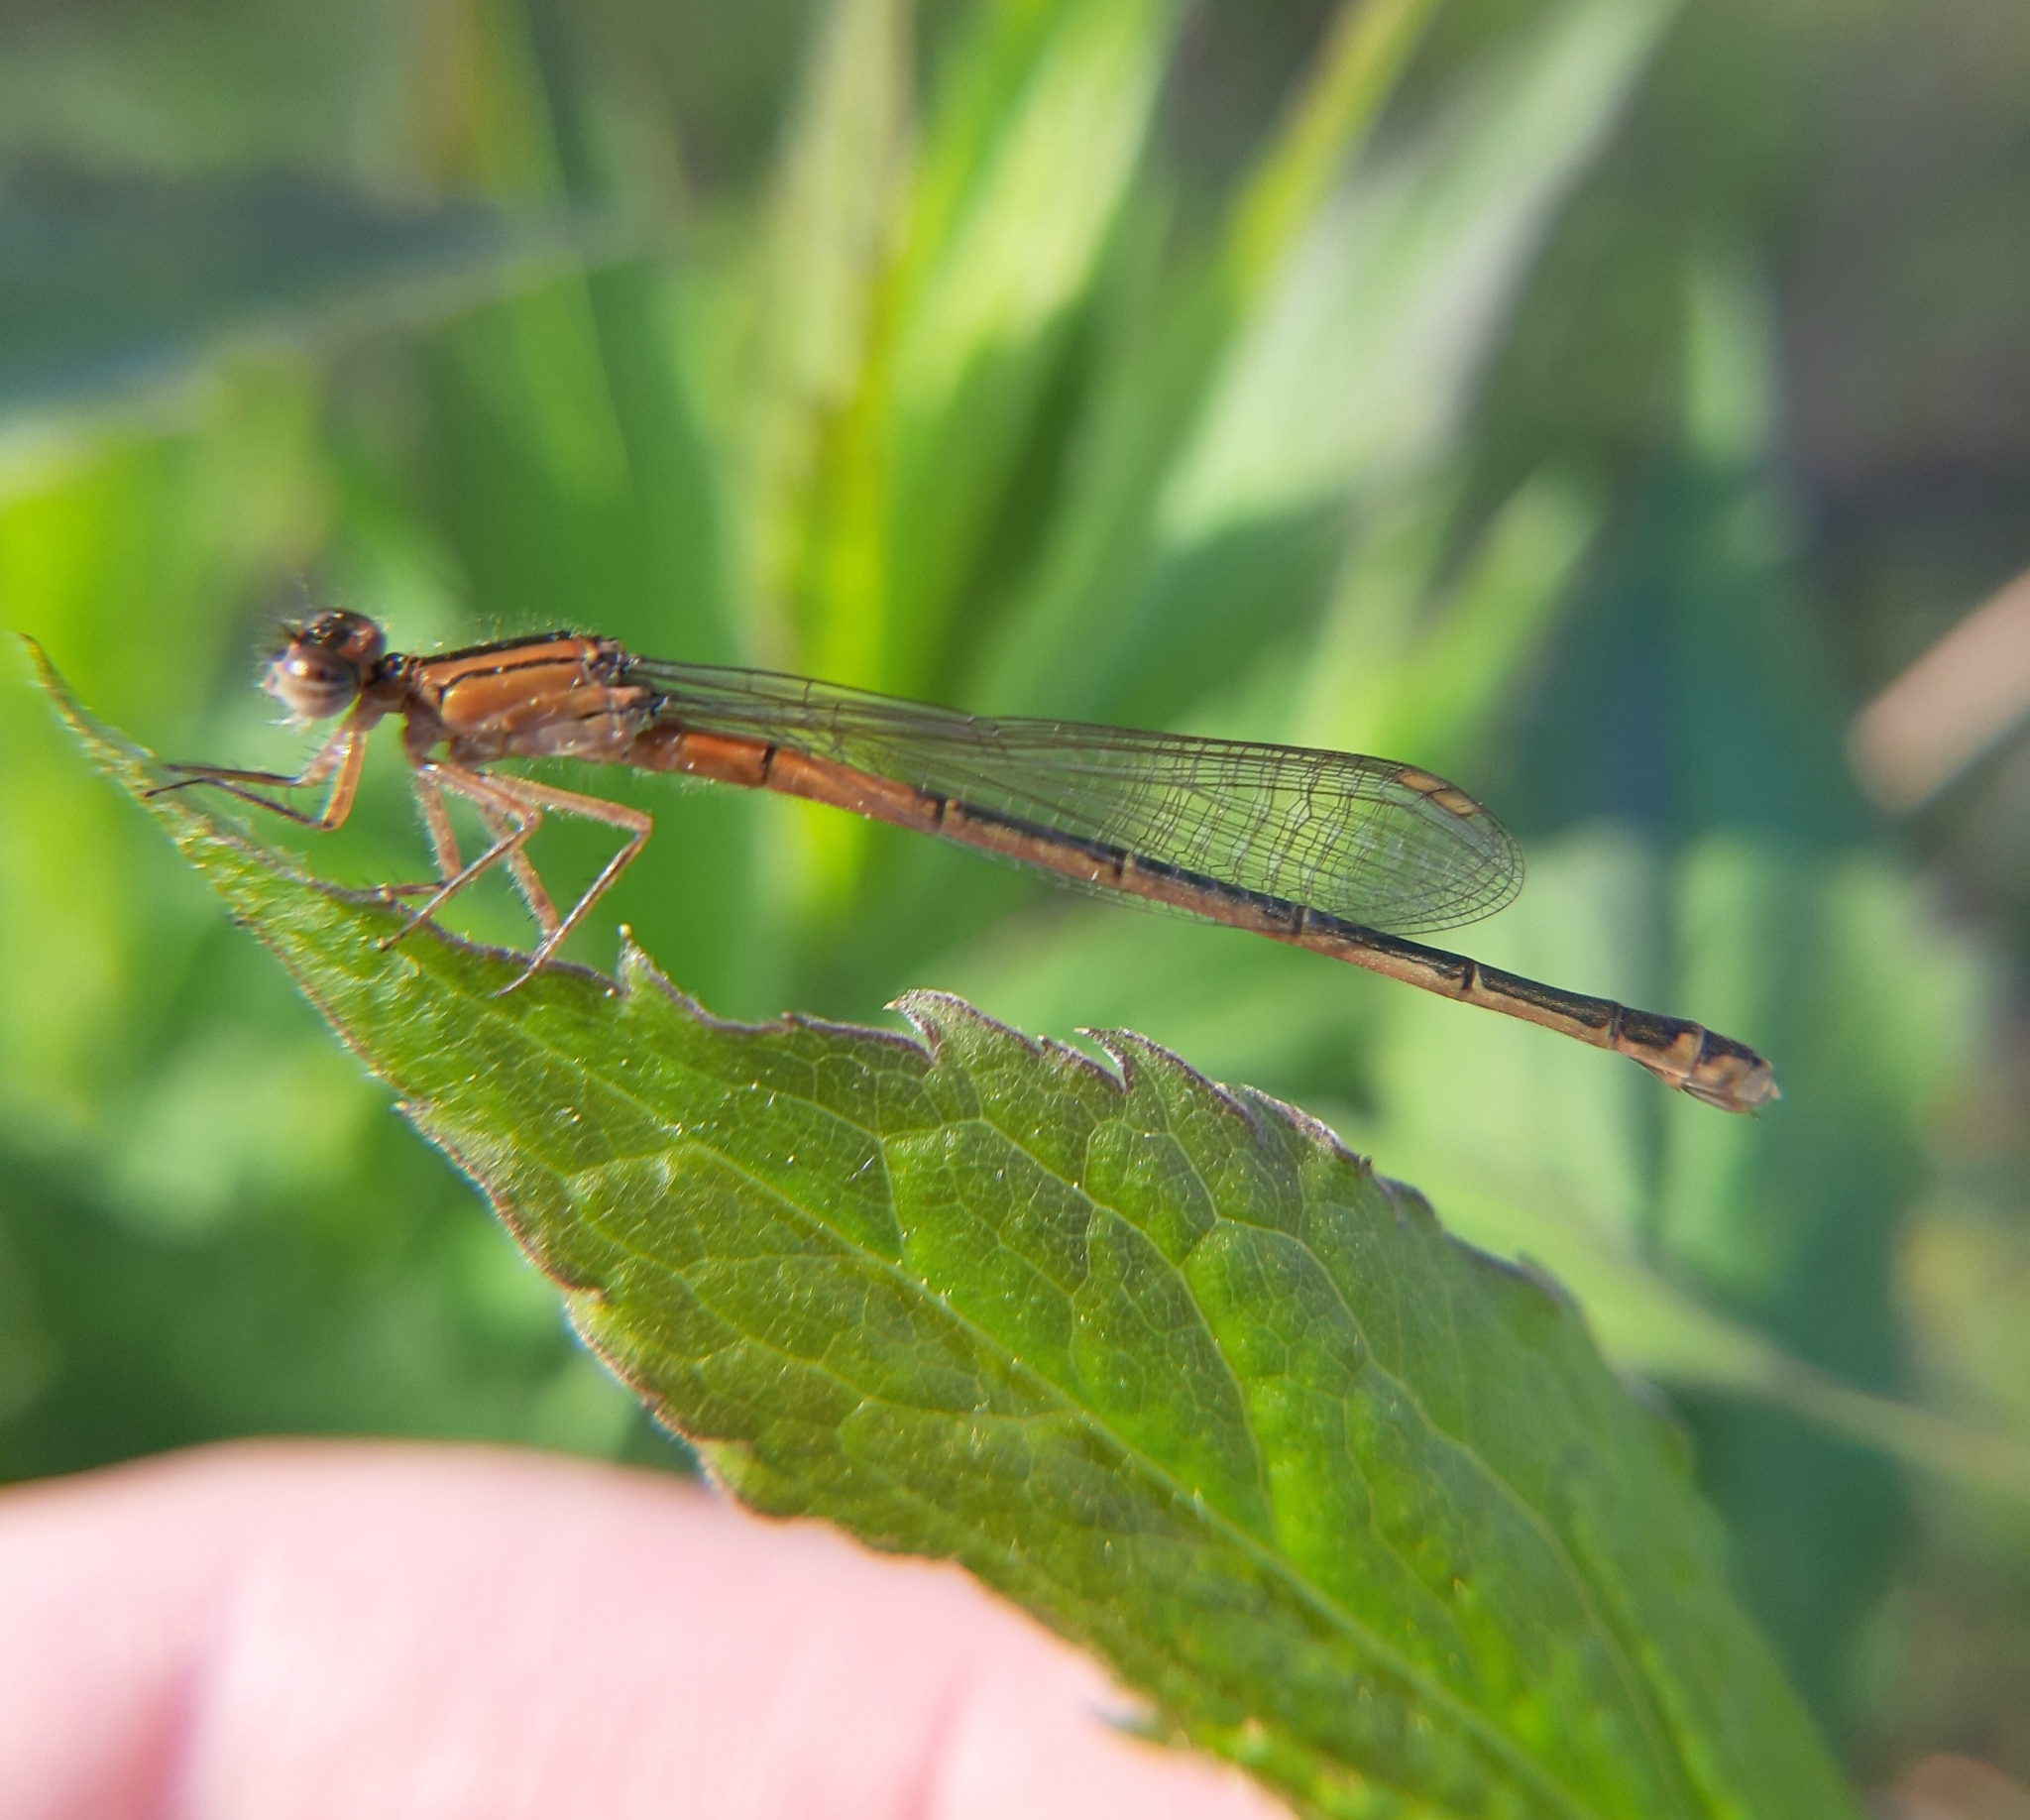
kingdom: Animalia
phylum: Arthropoda
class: Insecta
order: Odonata
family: Coenagrionidae
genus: Ischnura
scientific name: Ischnura verticalis
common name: Eastern forktail
